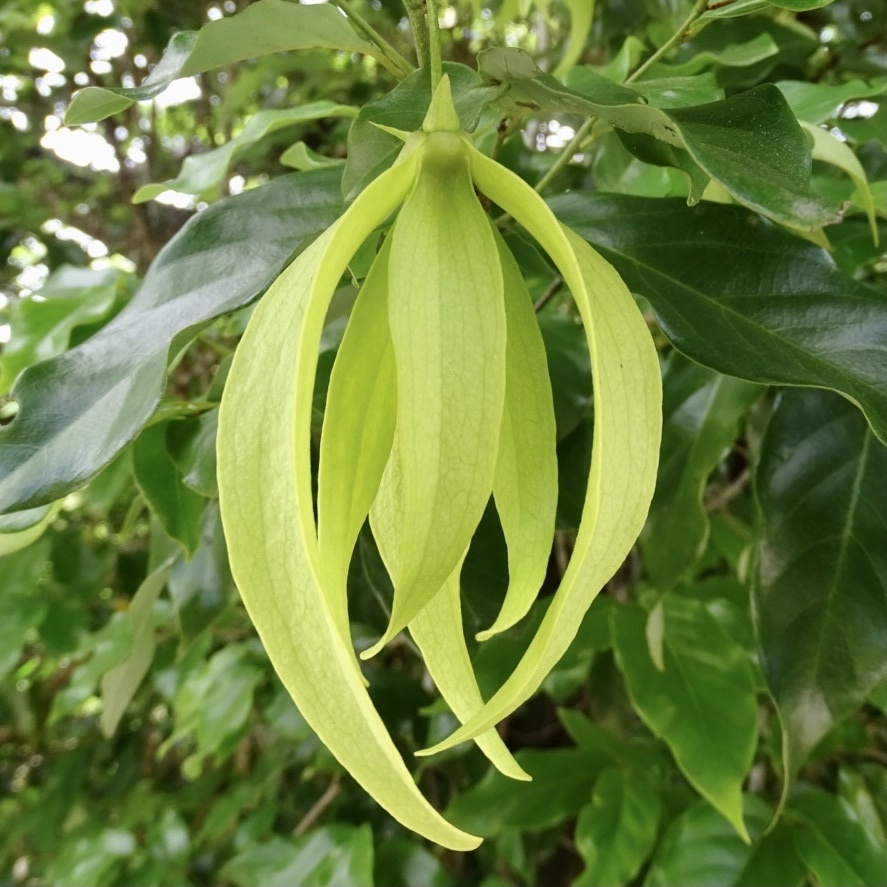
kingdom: Plantae
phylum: Tracheophyta
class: Magnoliopsida
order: Magnoliales
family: Annonaceae
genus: Desmos
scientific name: Desmos chinensis
